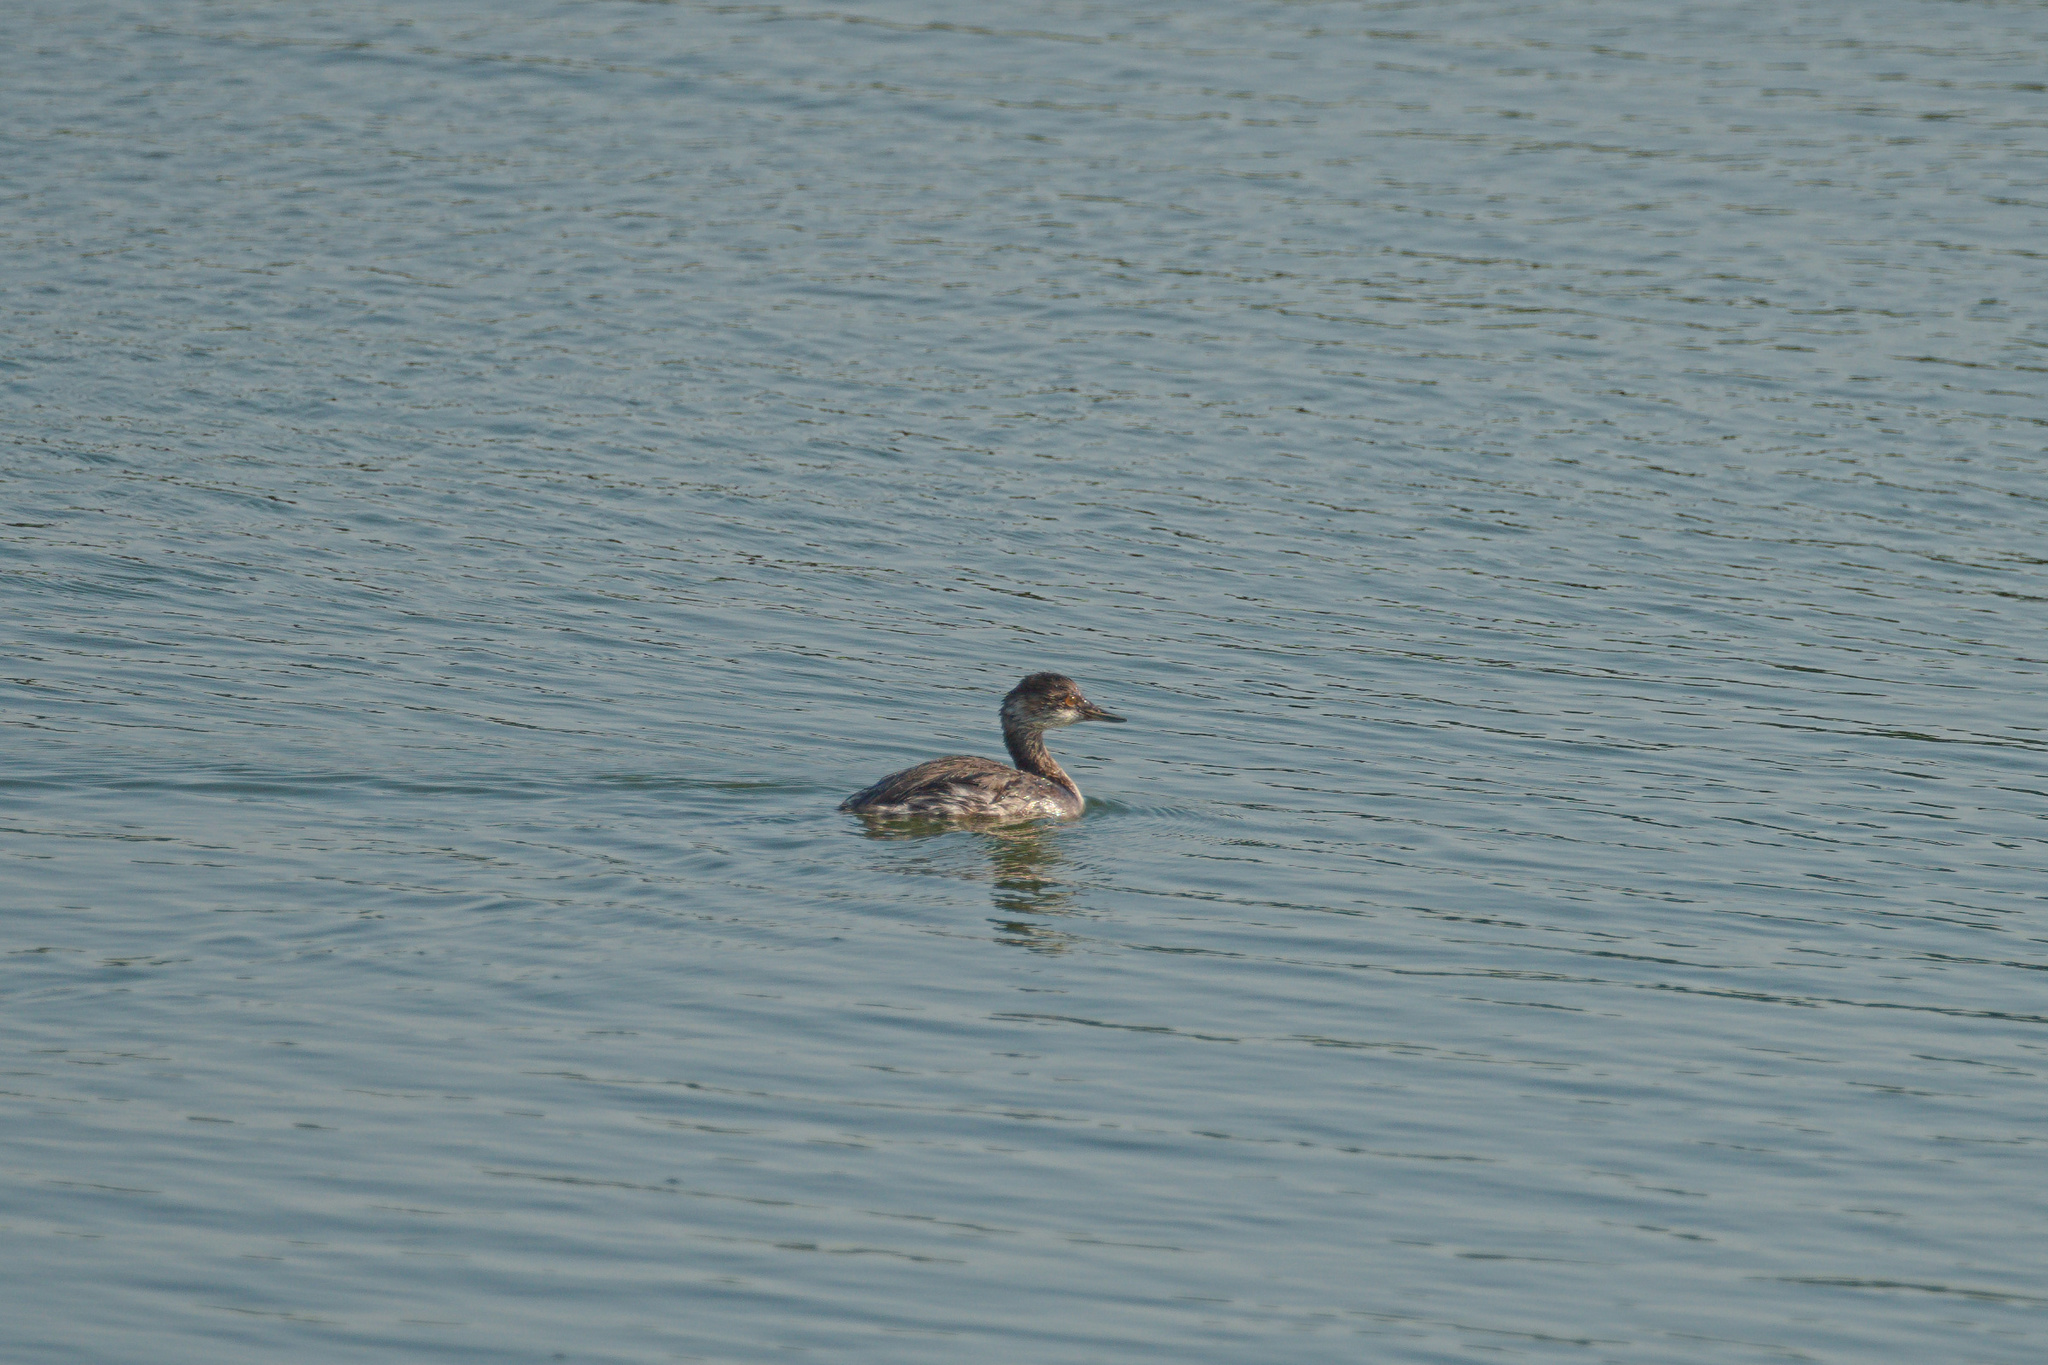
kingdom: Animalia
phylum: Chordata
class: Aves
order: Podicipediformes
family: Podicipedidae
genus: Podiceps
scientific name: Podiceps nigricollis
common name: Black-necked grebe
